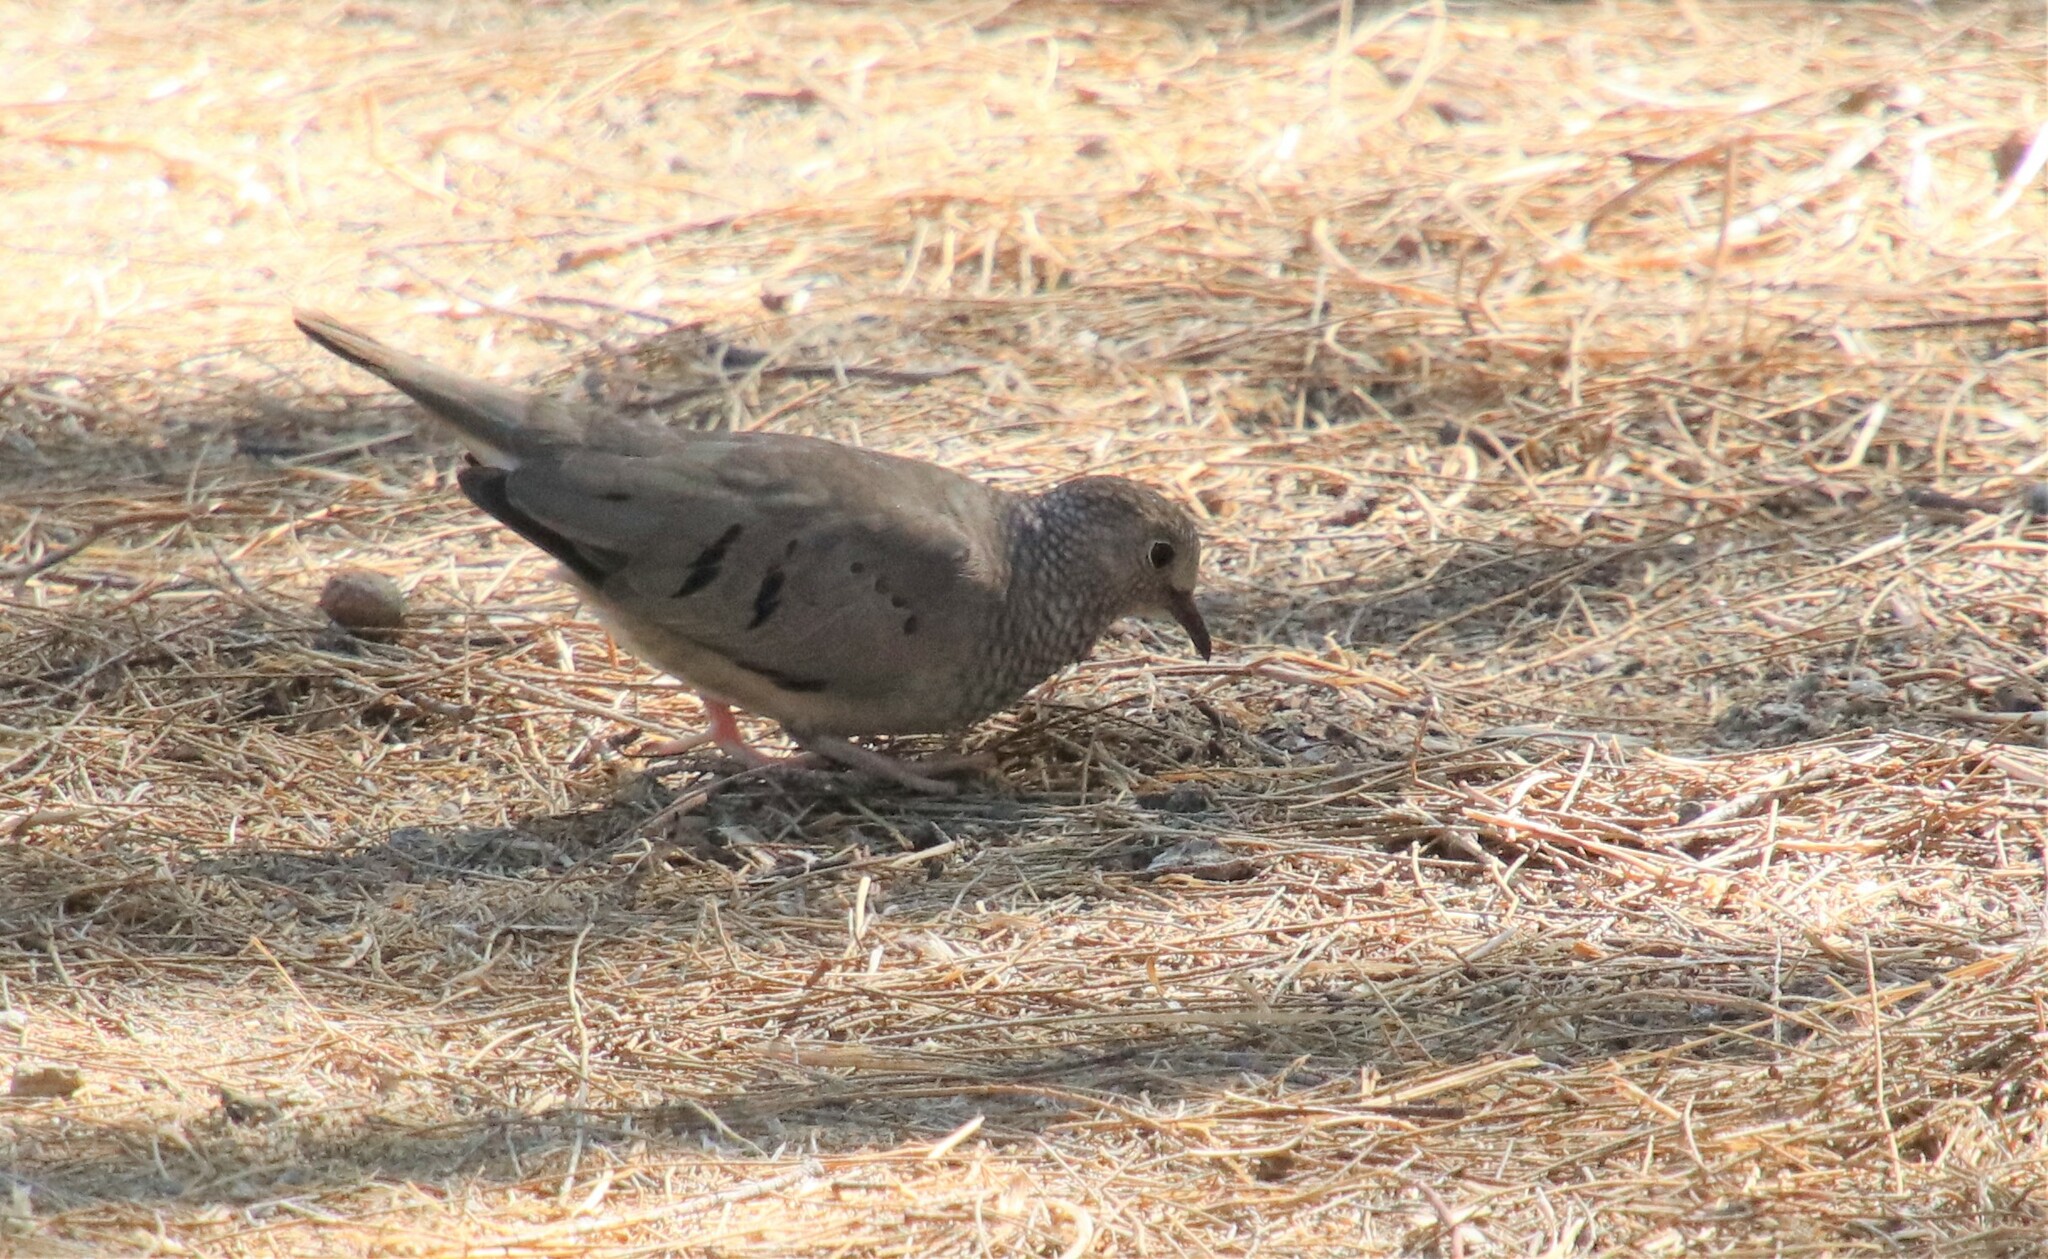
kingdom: Animalia
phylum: Chordata
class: Aves
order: Columbiformes
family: Columbidae
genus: Columbina
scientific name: Columbina passerina
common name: Common ground-dove
